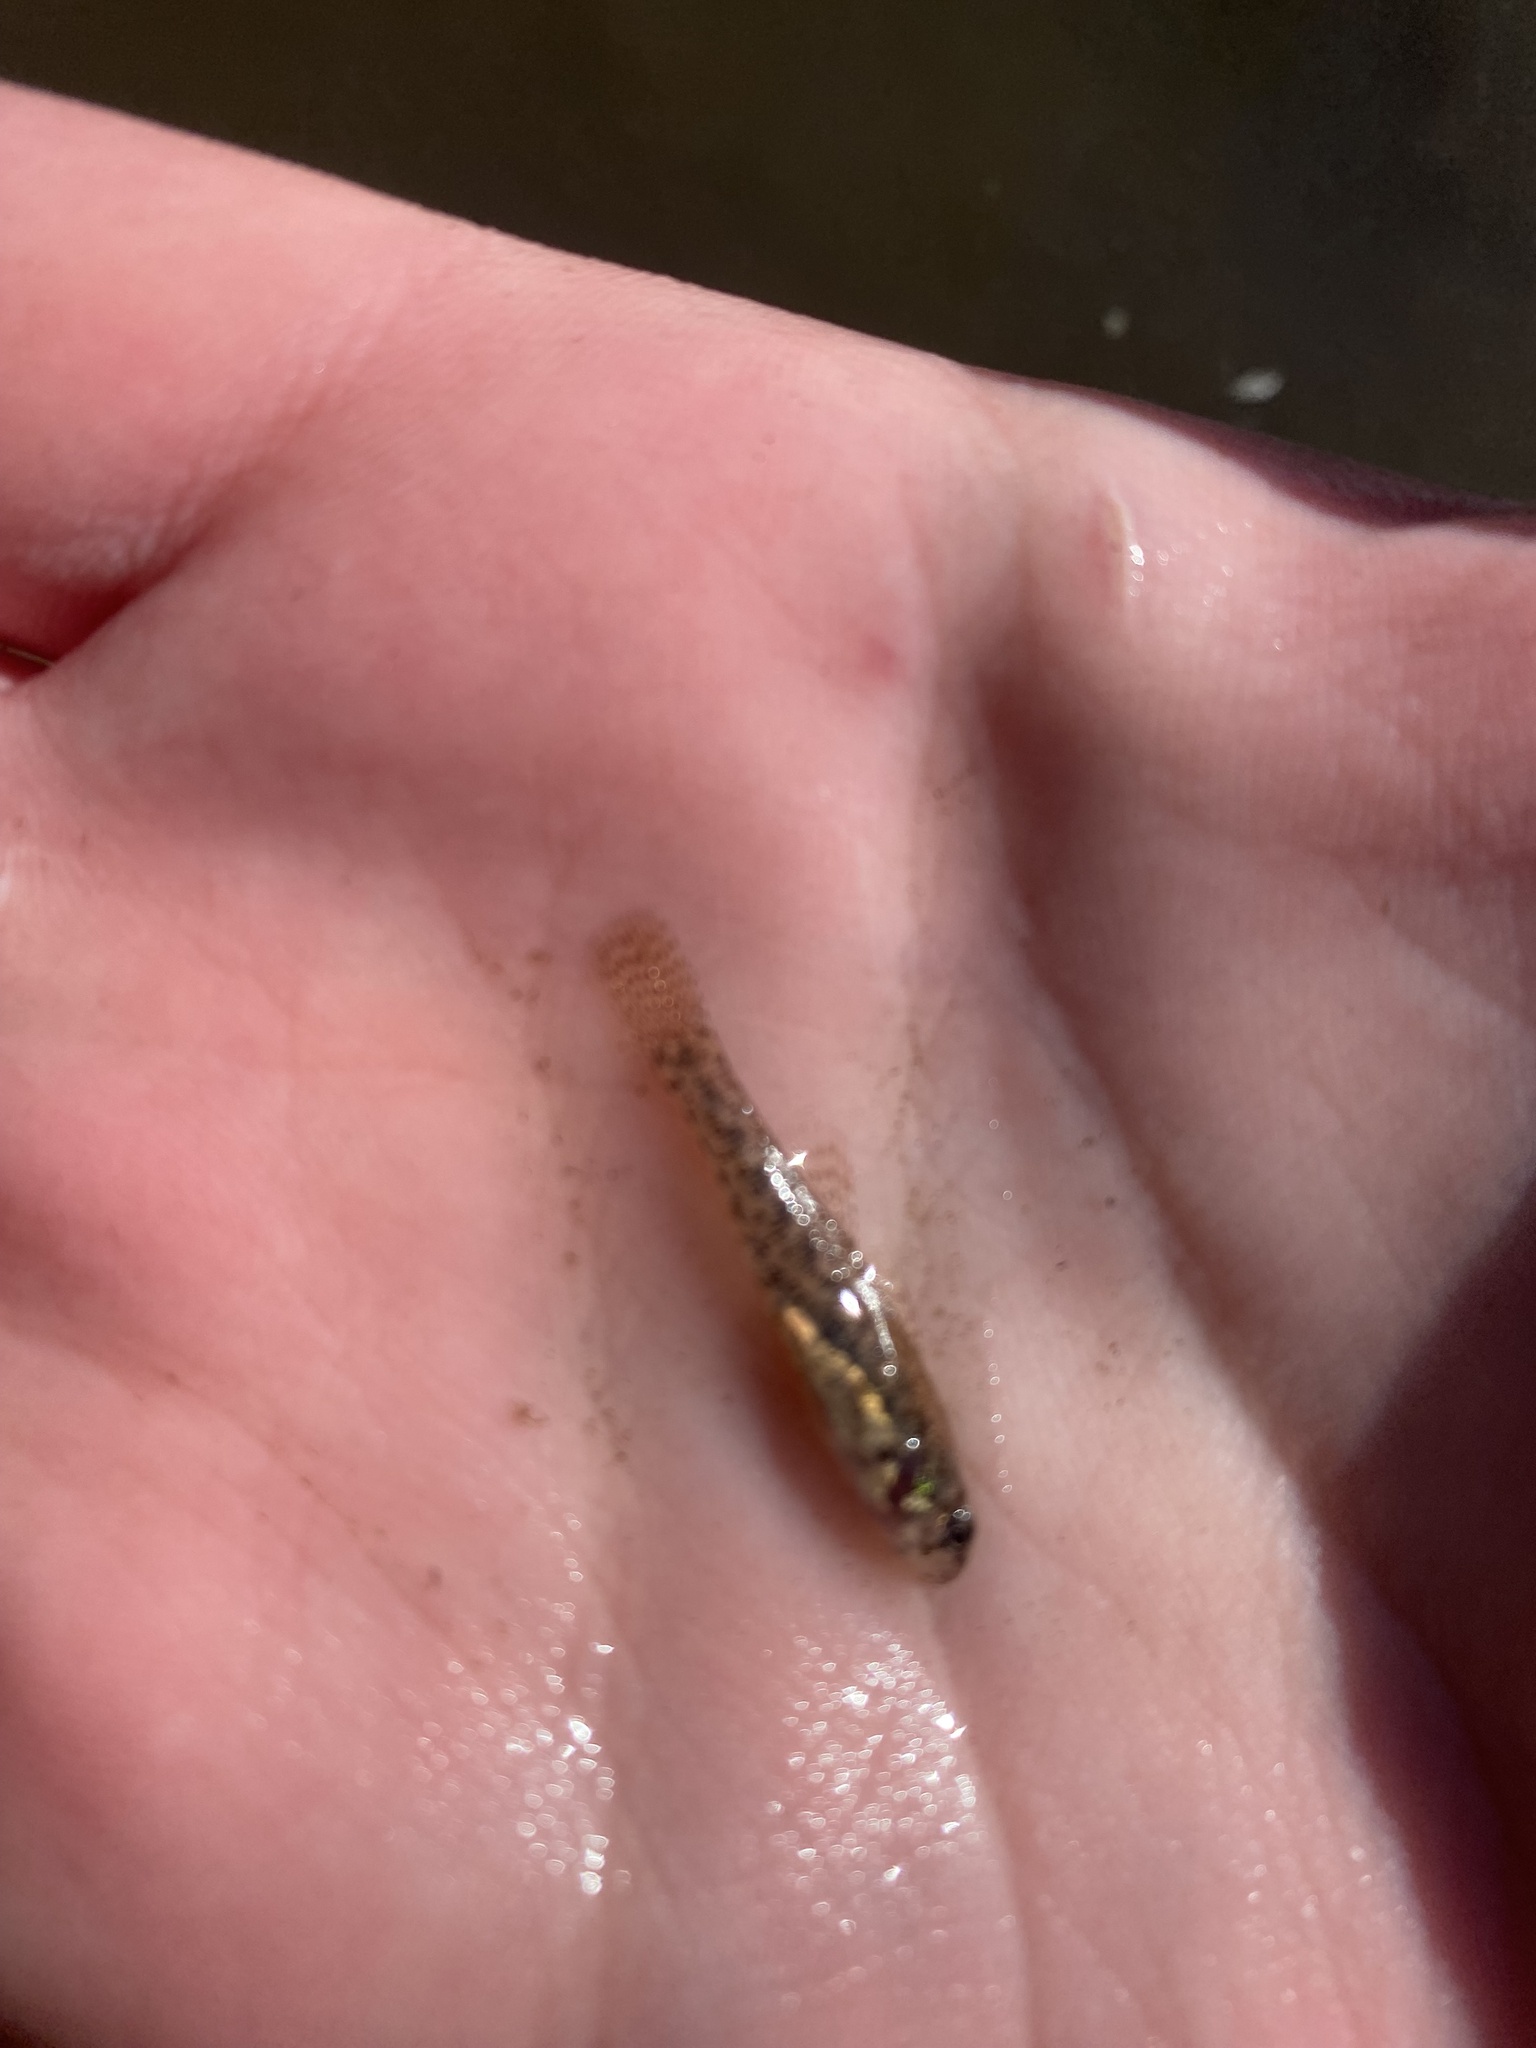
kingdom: Animalia
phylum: Chordata
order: Perciformes
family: Percidae
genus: Etheostoma
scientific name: Etheostoma microperca
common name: Least darter
